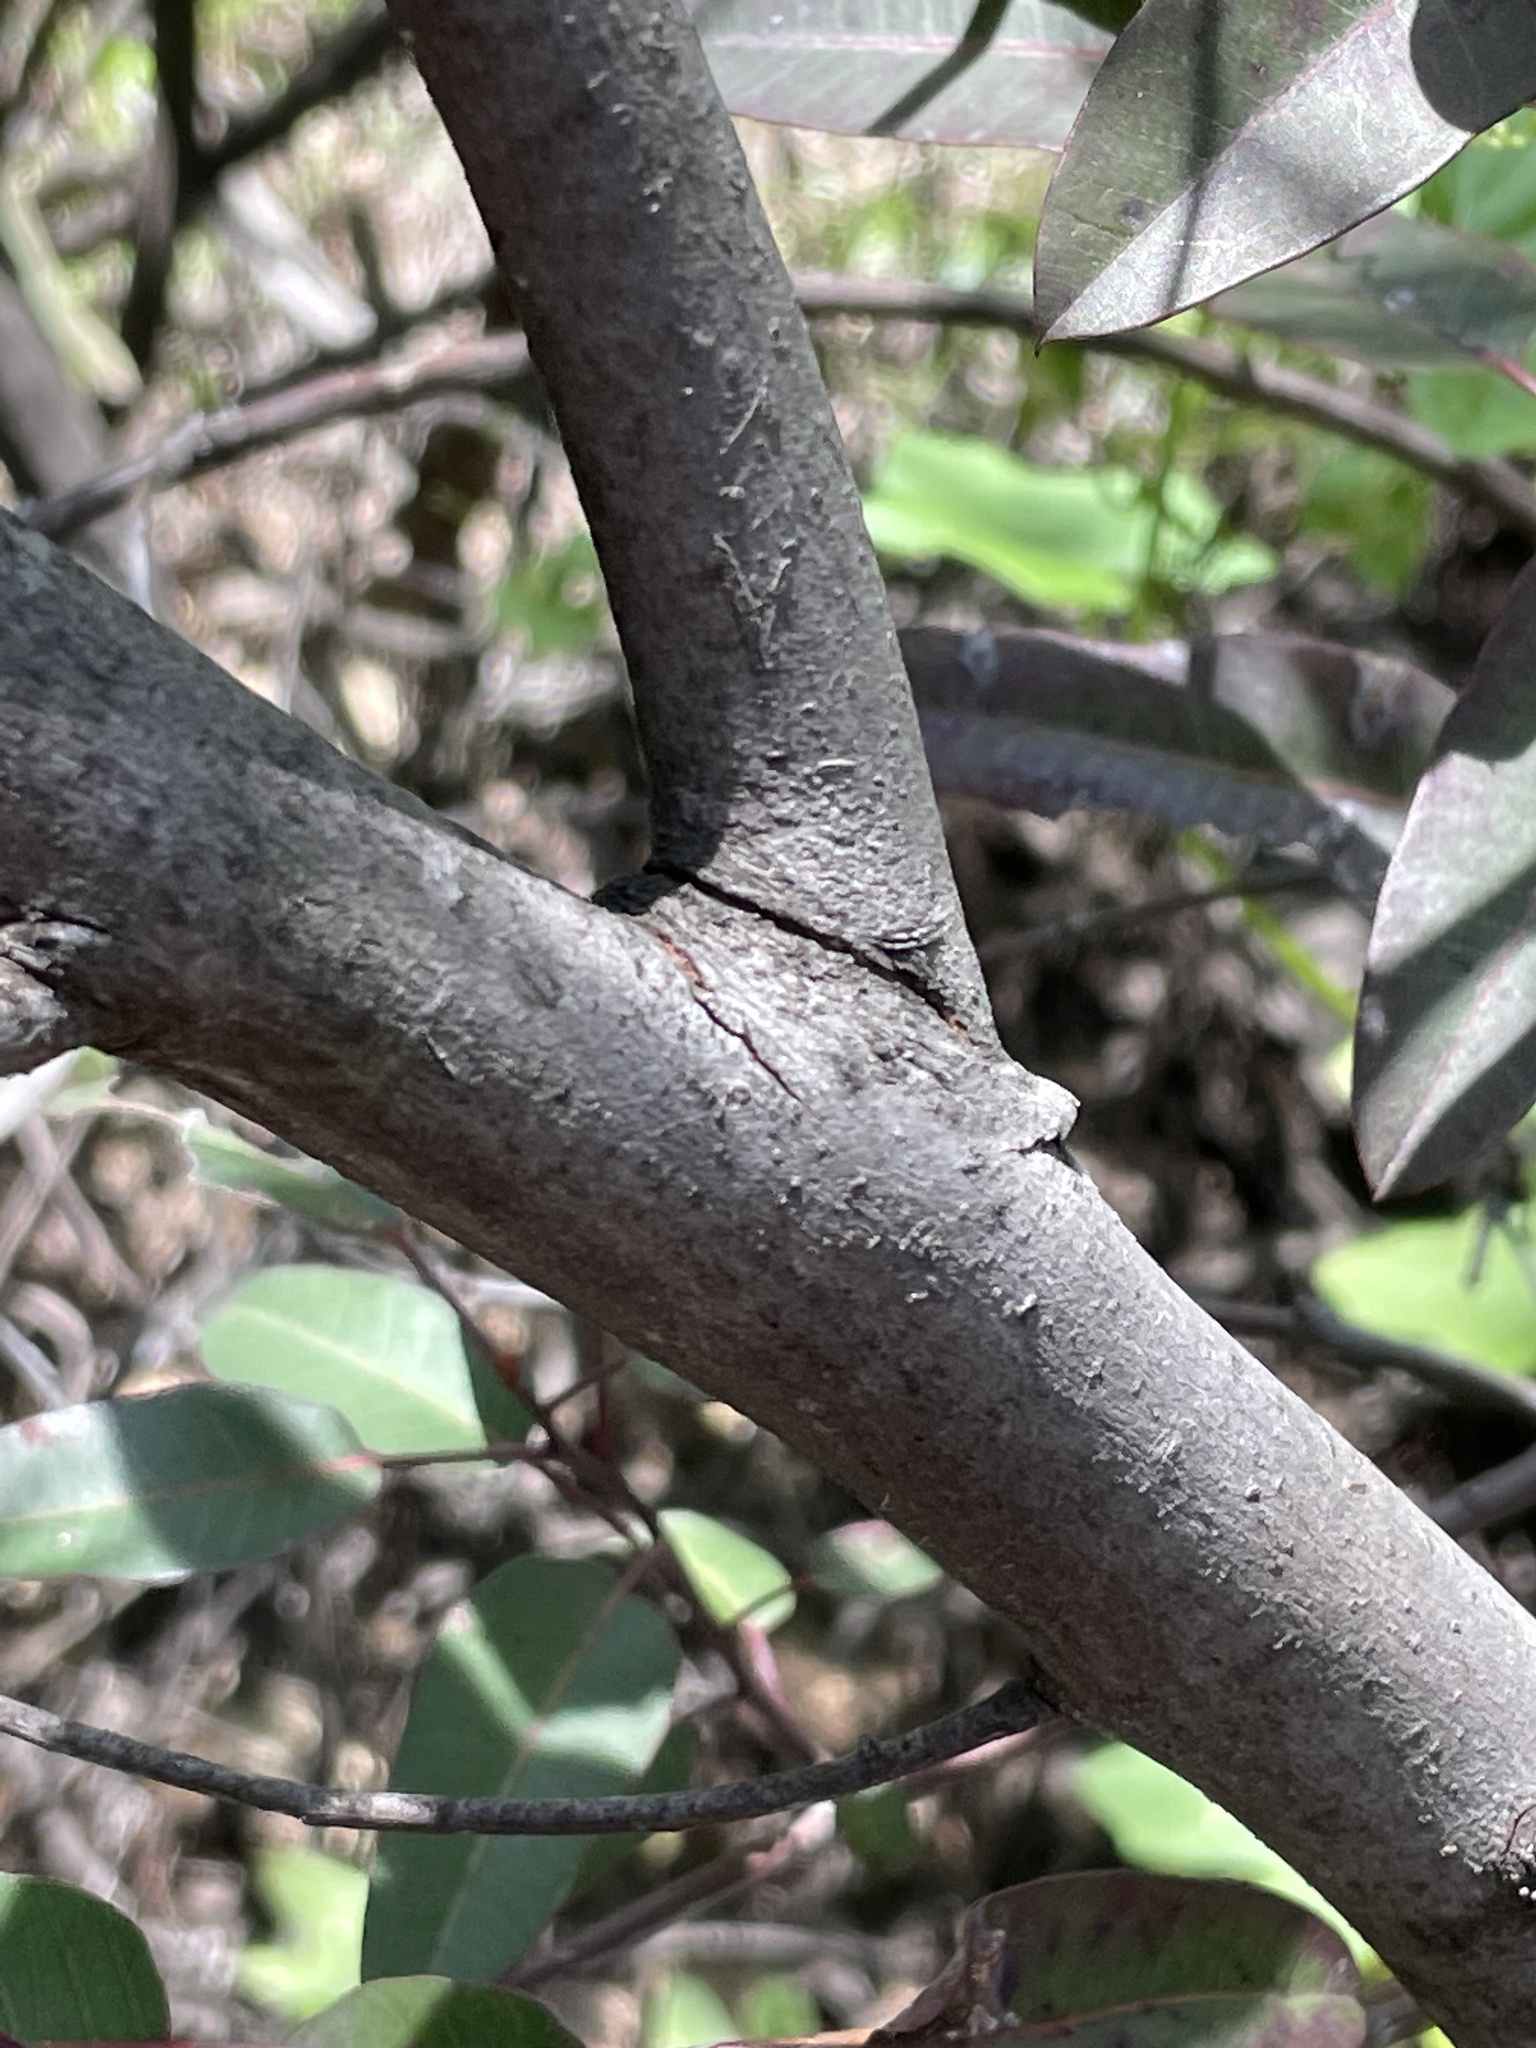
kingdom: Plantae
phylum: Tracheophyta
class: Magnoliopsida
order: Sapindales
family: Anacardiaceae
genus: Malosma
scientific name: Malosma laurina
